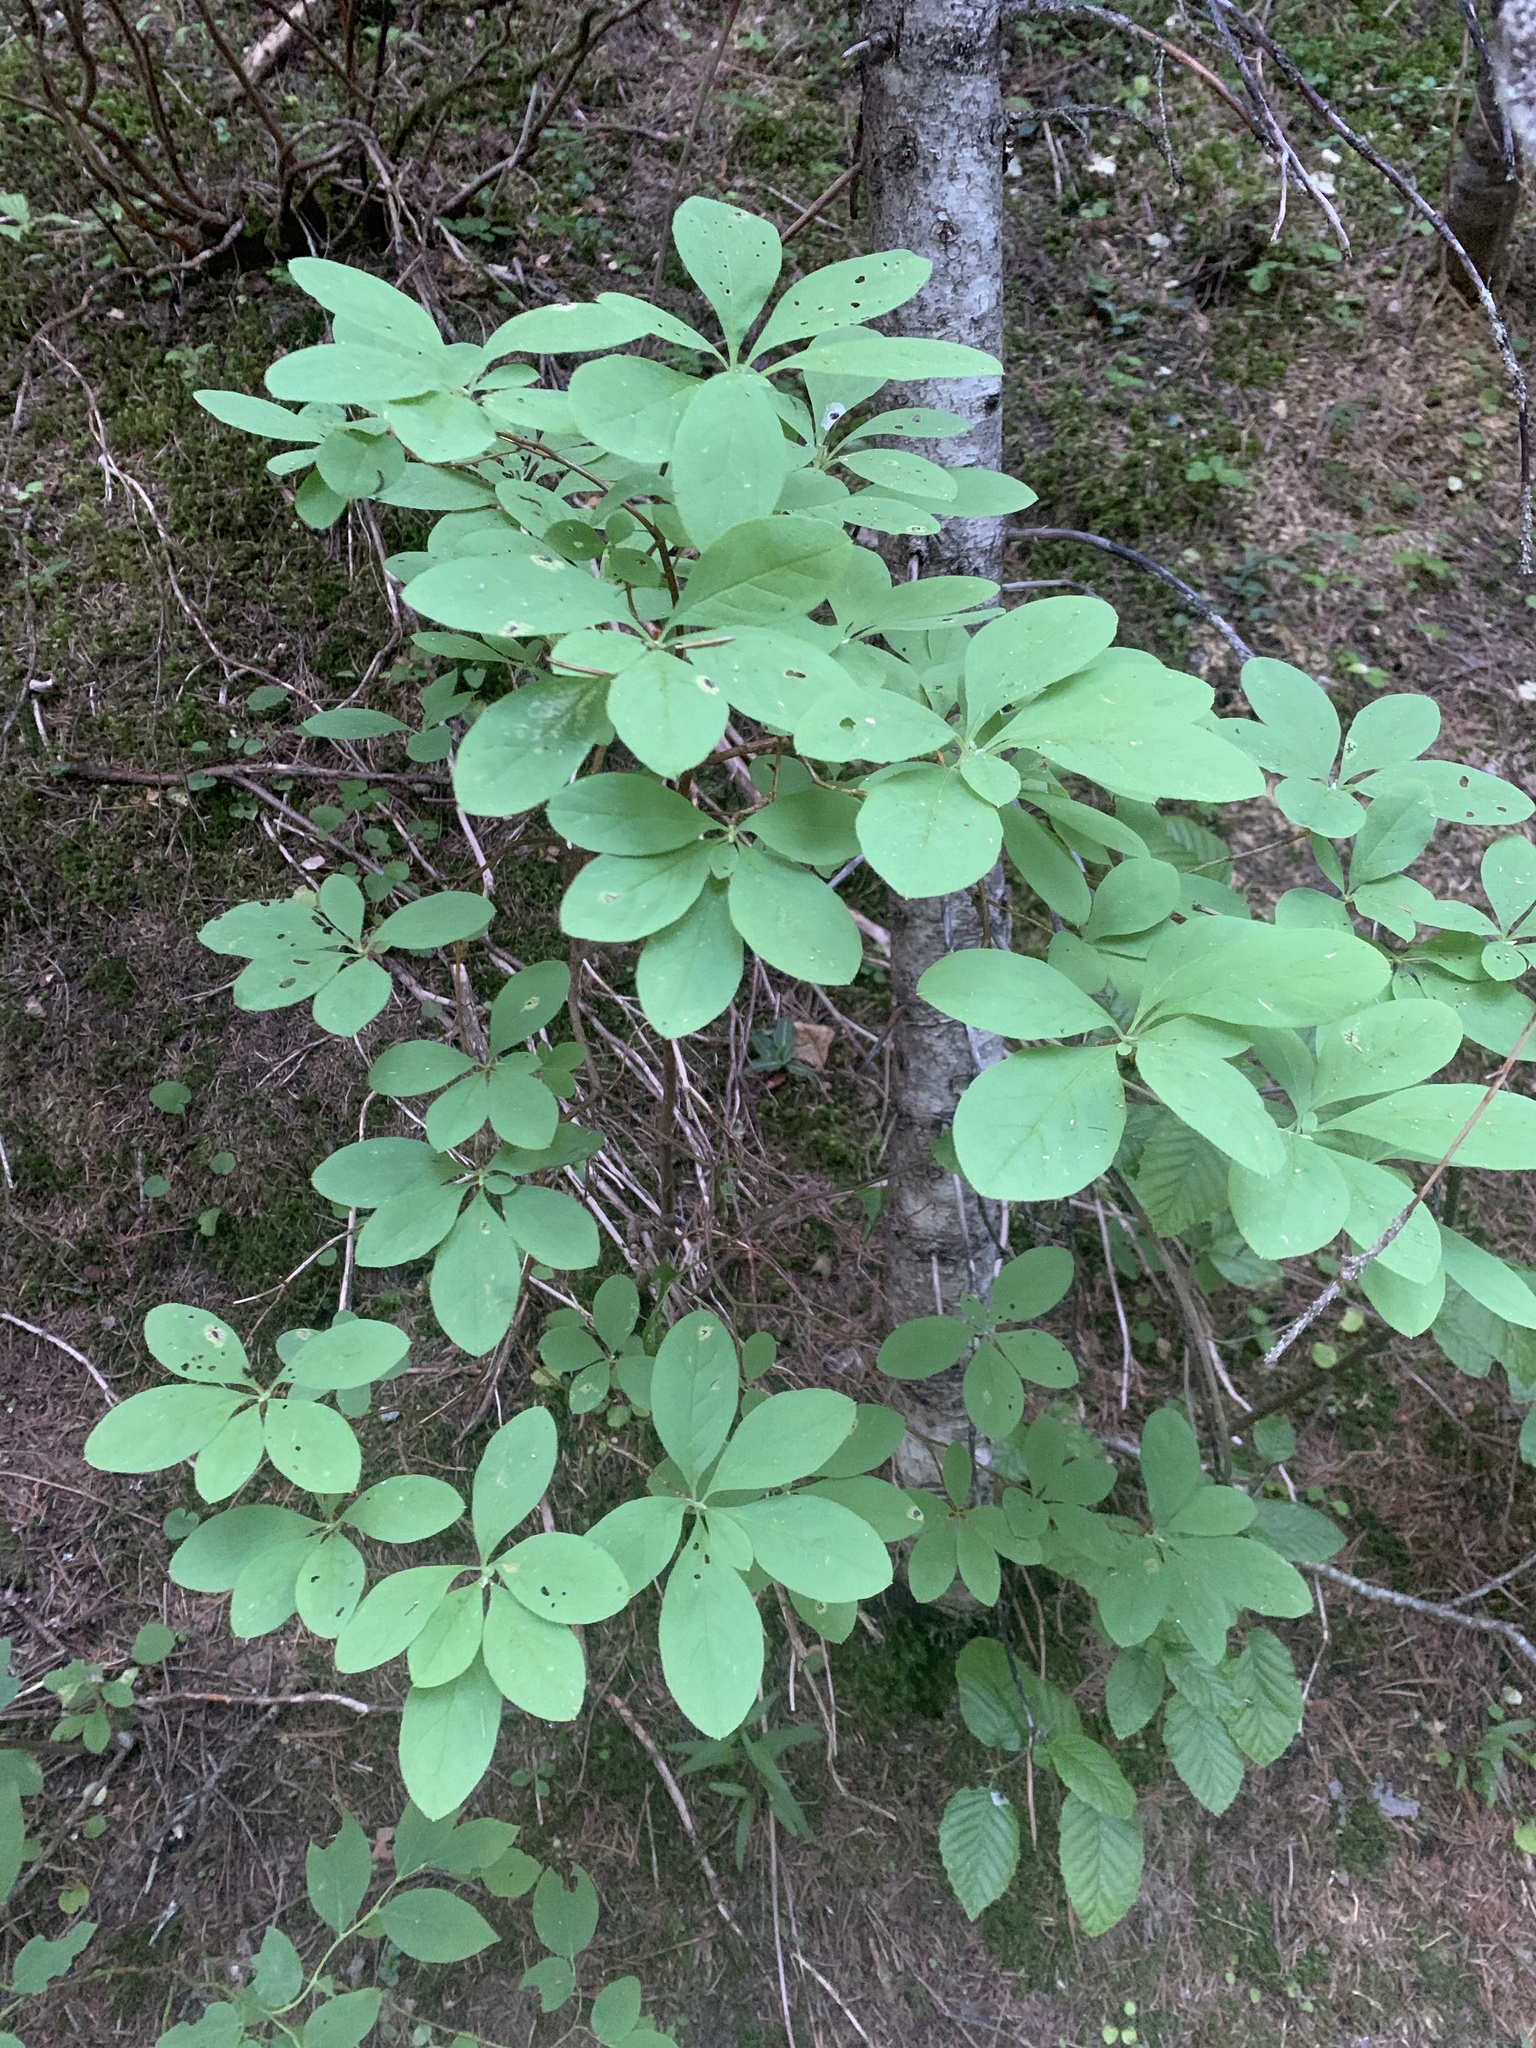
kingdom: Plantae
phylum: Tracheophyta
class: Magnoliopsida
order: Ericales
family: Ericaceae
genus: Rhododendron
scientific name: Rhododendron menziesii
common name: Pacific menziesia
